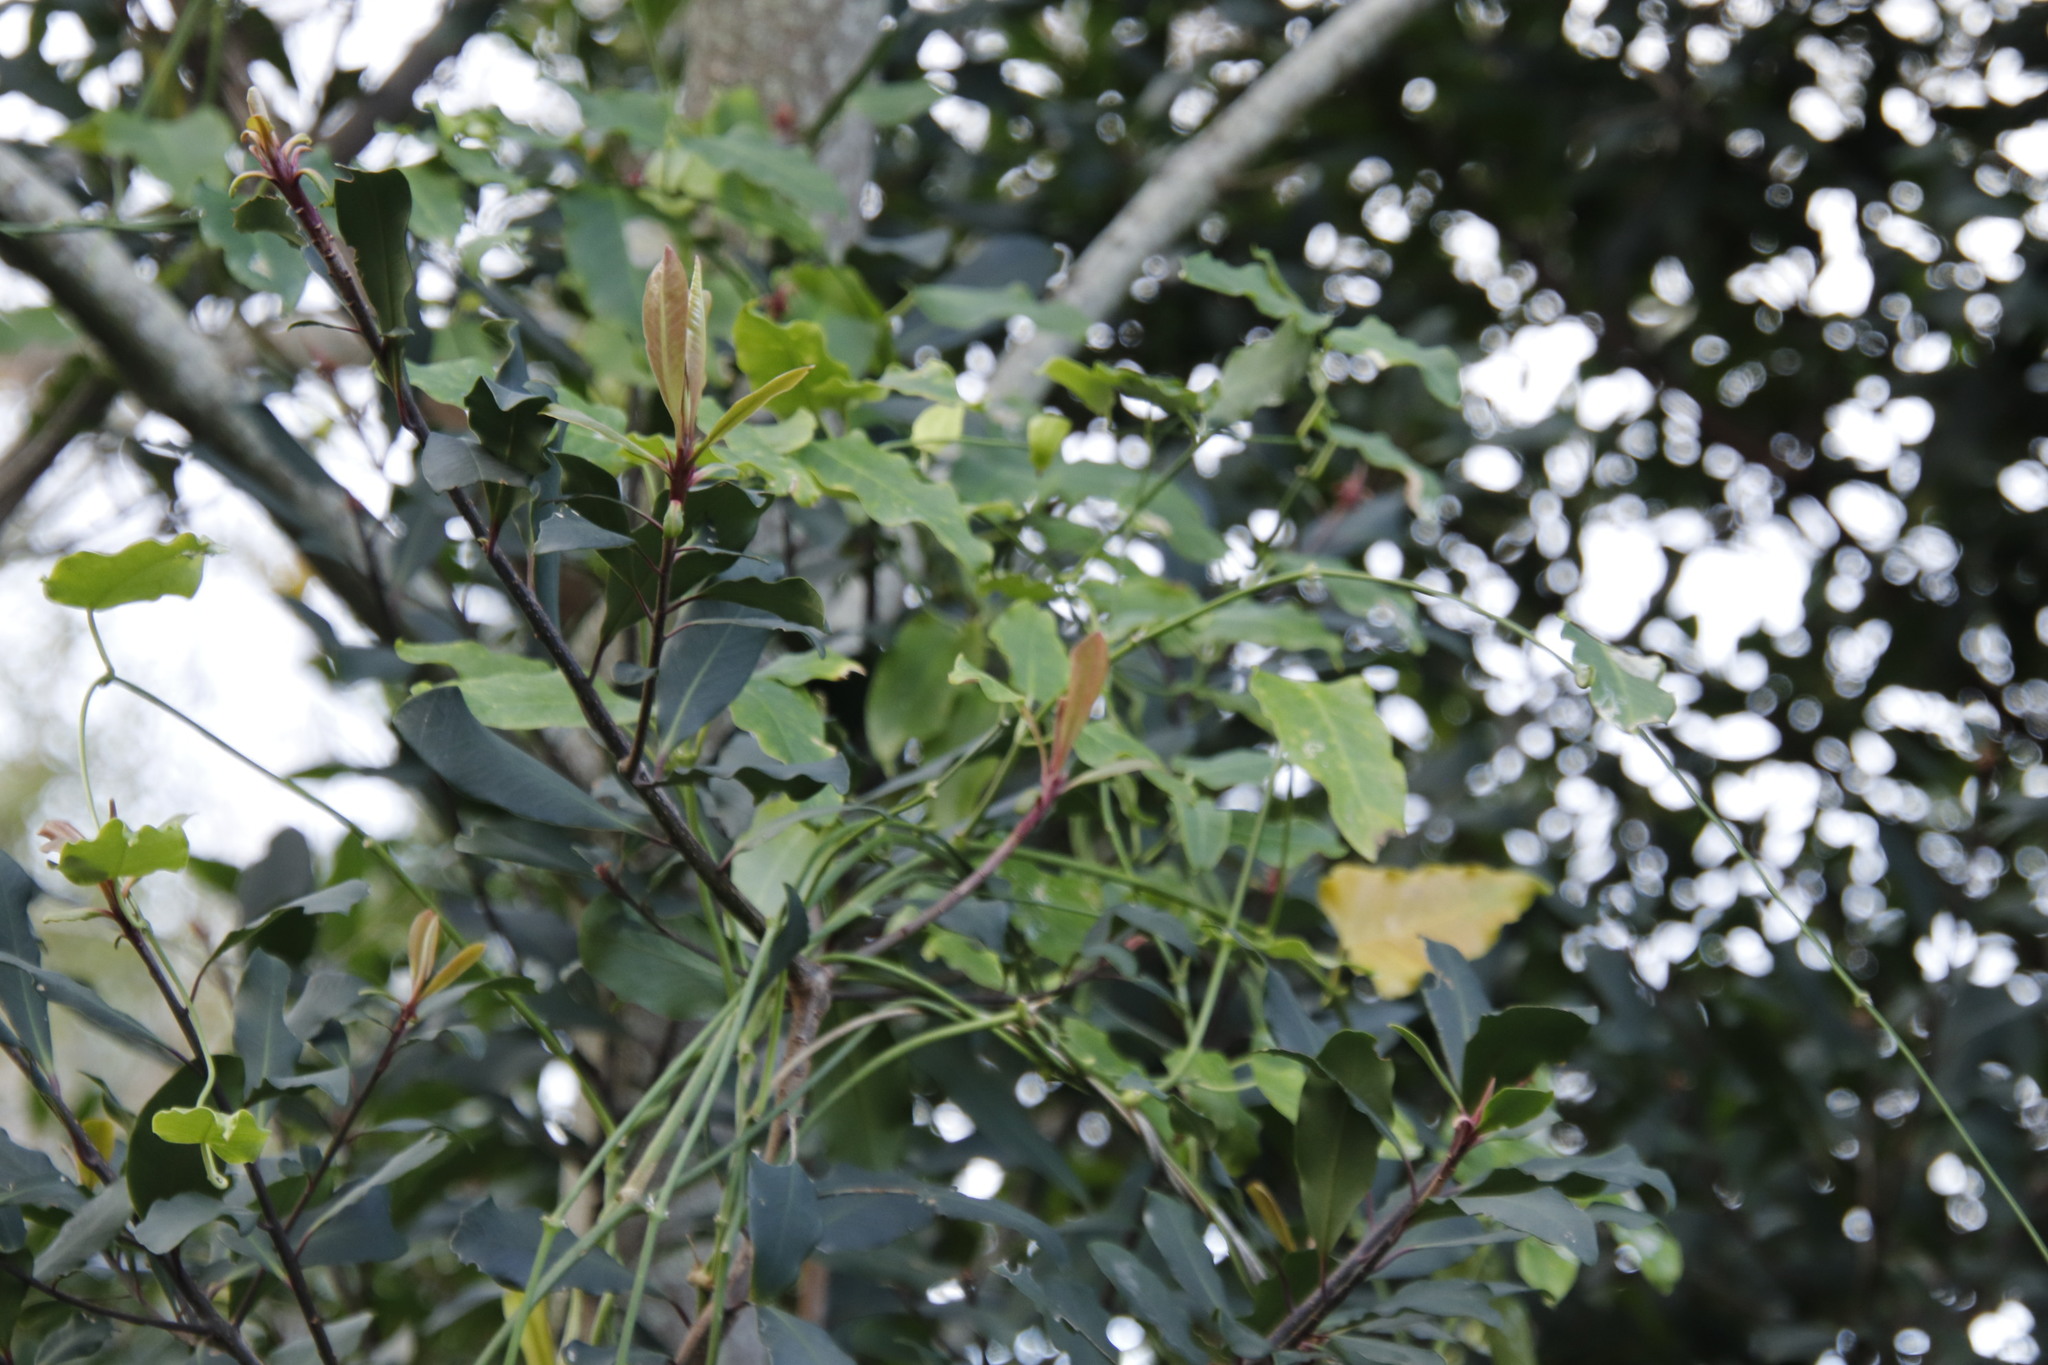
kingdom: Plantae
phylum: Tracheophyta
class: Magnoliopsida
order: Ericales
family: Primulaceae
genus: Myrsine
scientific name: Myrsine melanophloeos
